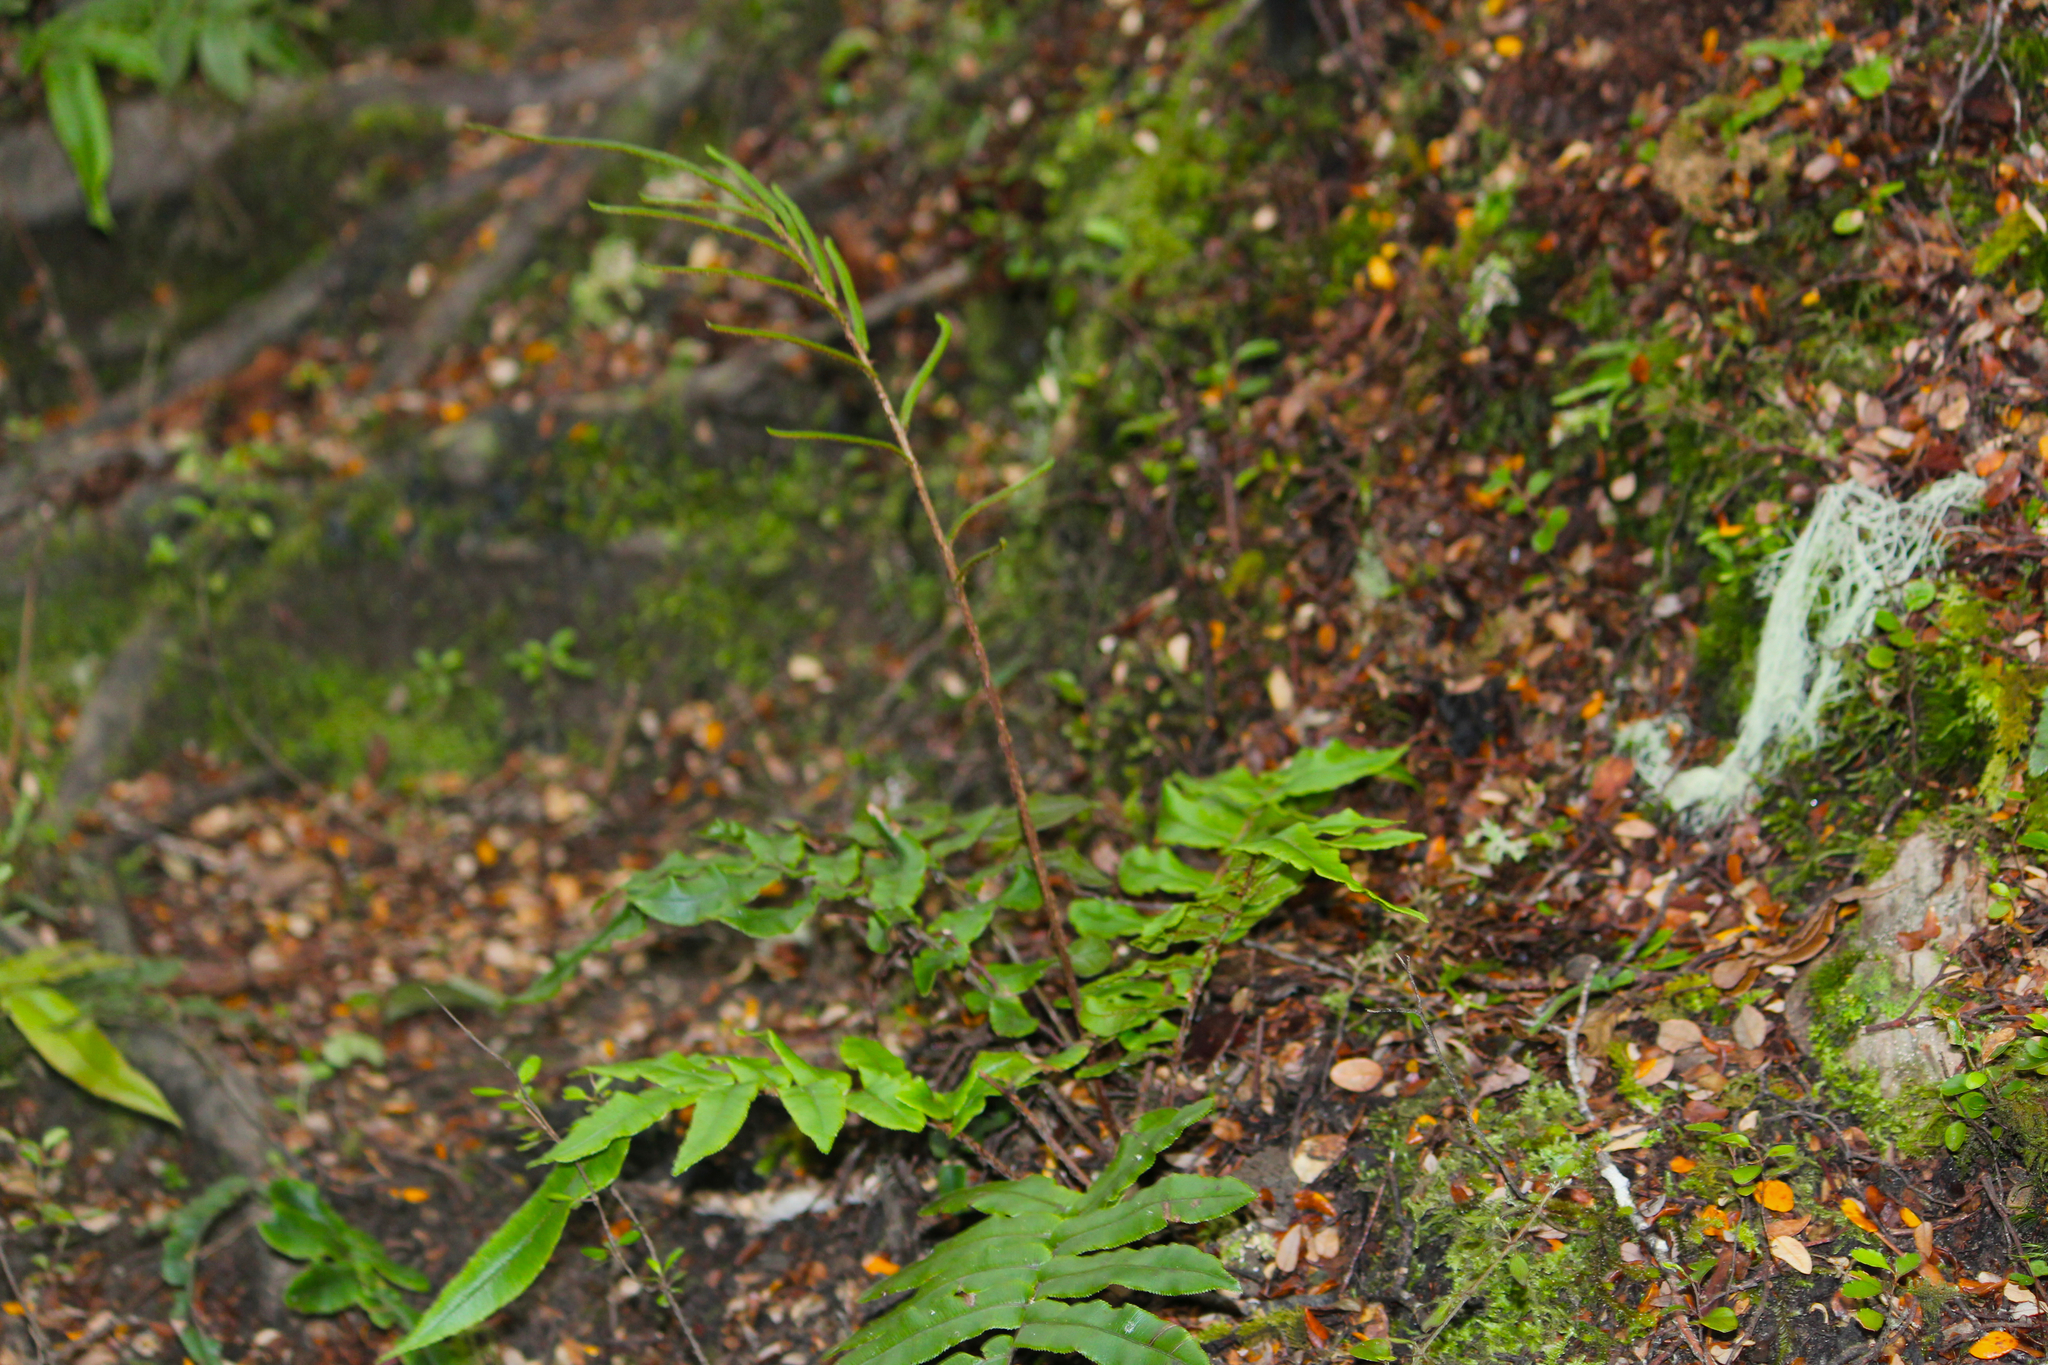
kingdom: Plantae
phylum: Tracheophyta
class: Polypodiopsida
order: Polypodiales
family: Blechnaceae
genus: Parablechnum
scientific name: Parablechnum procerum
